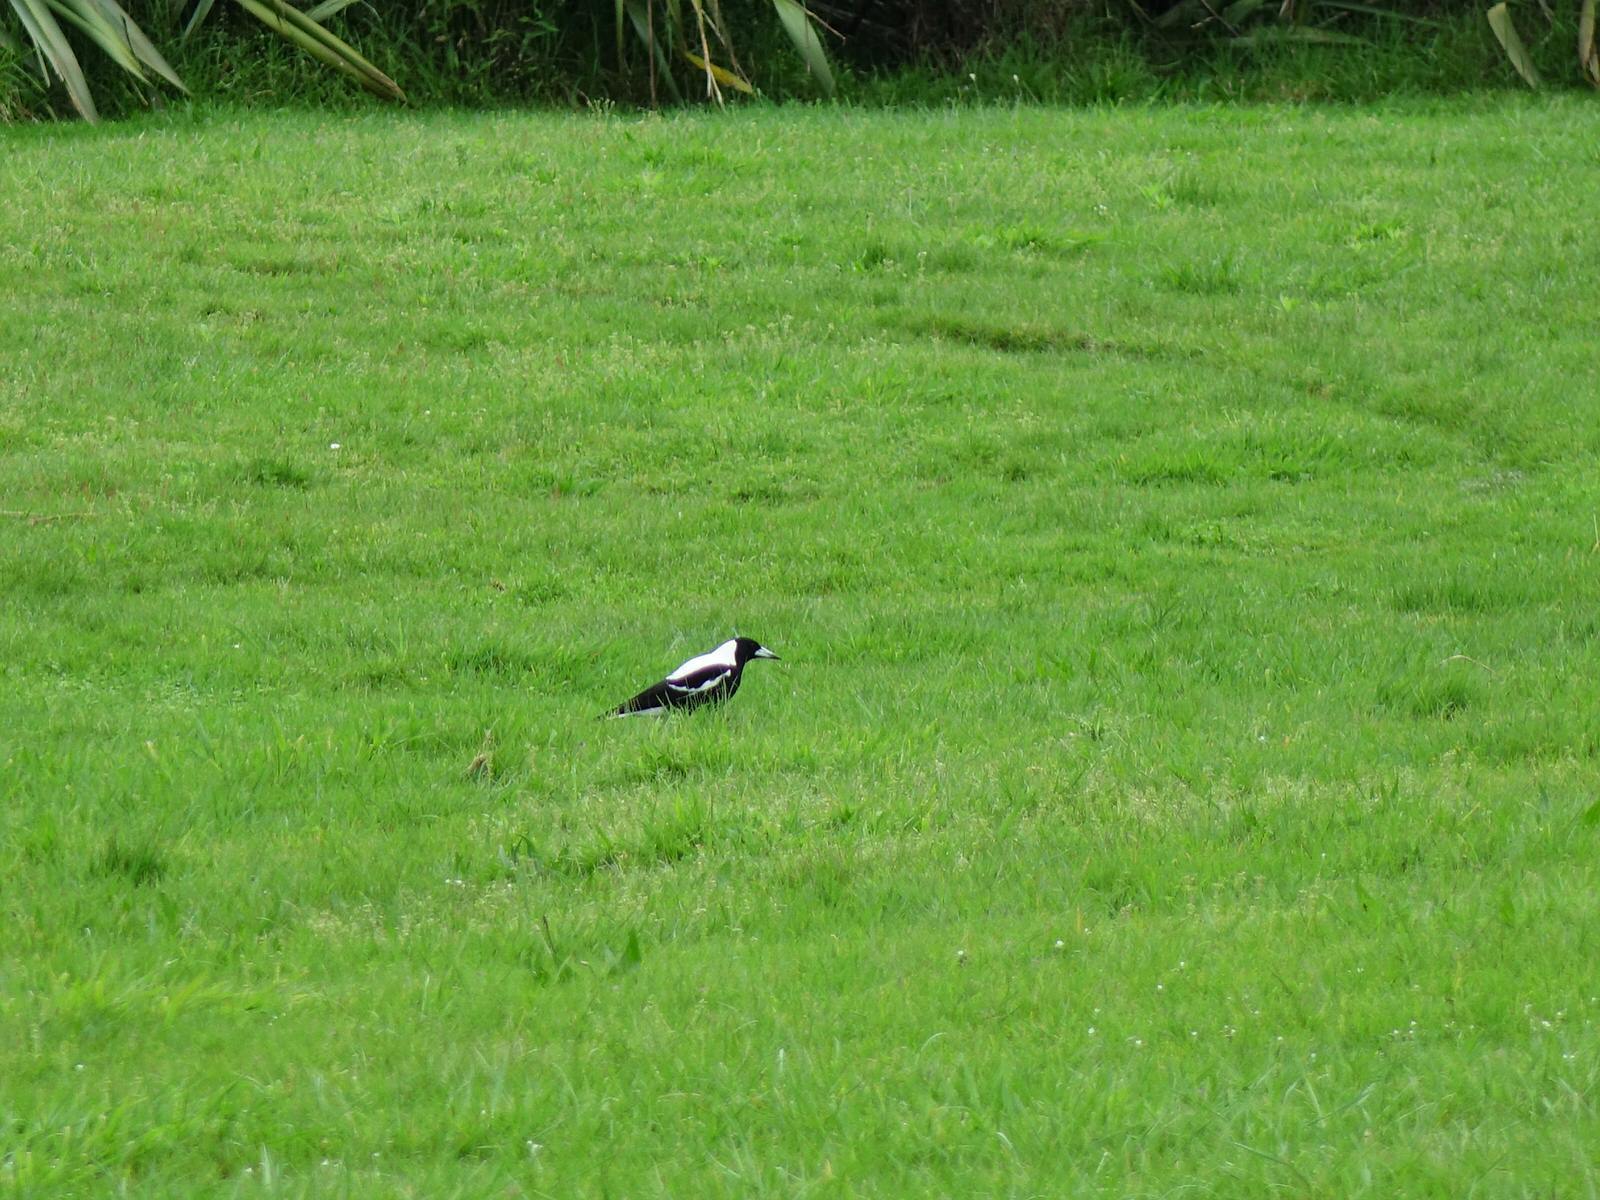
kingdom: Animalia
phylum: Chordata
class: Aves
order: Passeriformes
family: Cracticidae
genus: Gymnorhina
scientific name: Gymnorhina tibicen
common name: Australian magpie
